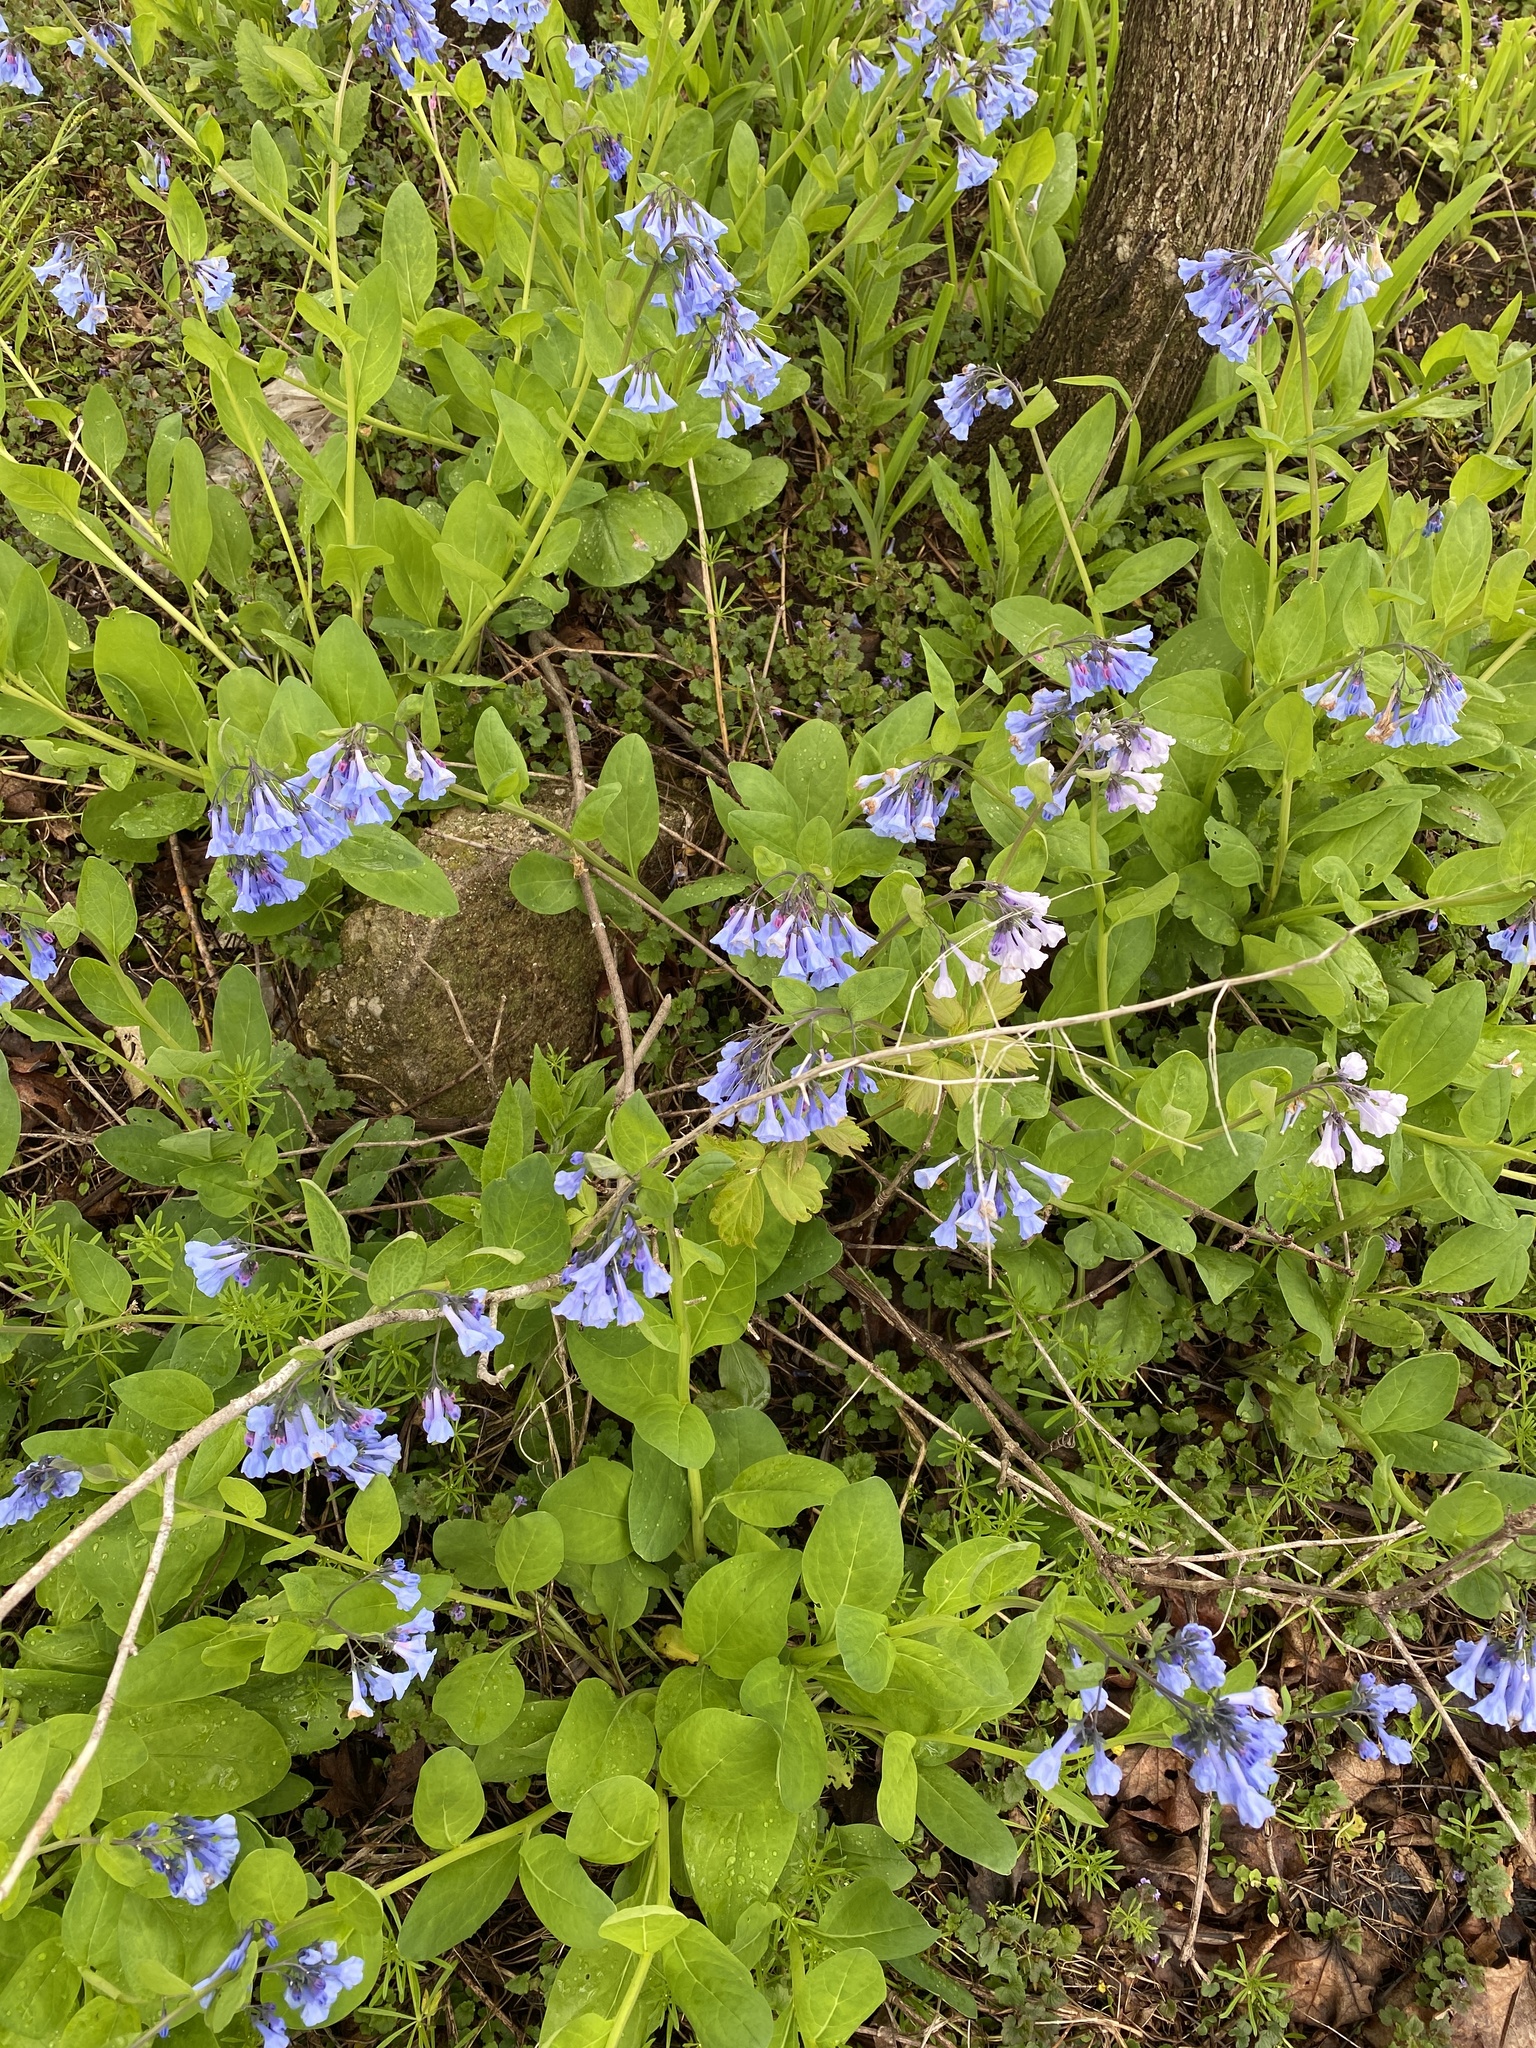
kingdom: Plantae
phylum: Tracheophyta
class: Magnoliopsida
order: Boraginales
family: Boraginaceae
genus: Mertensia
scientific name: Mertensia virginica
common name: Virginia bluebells
